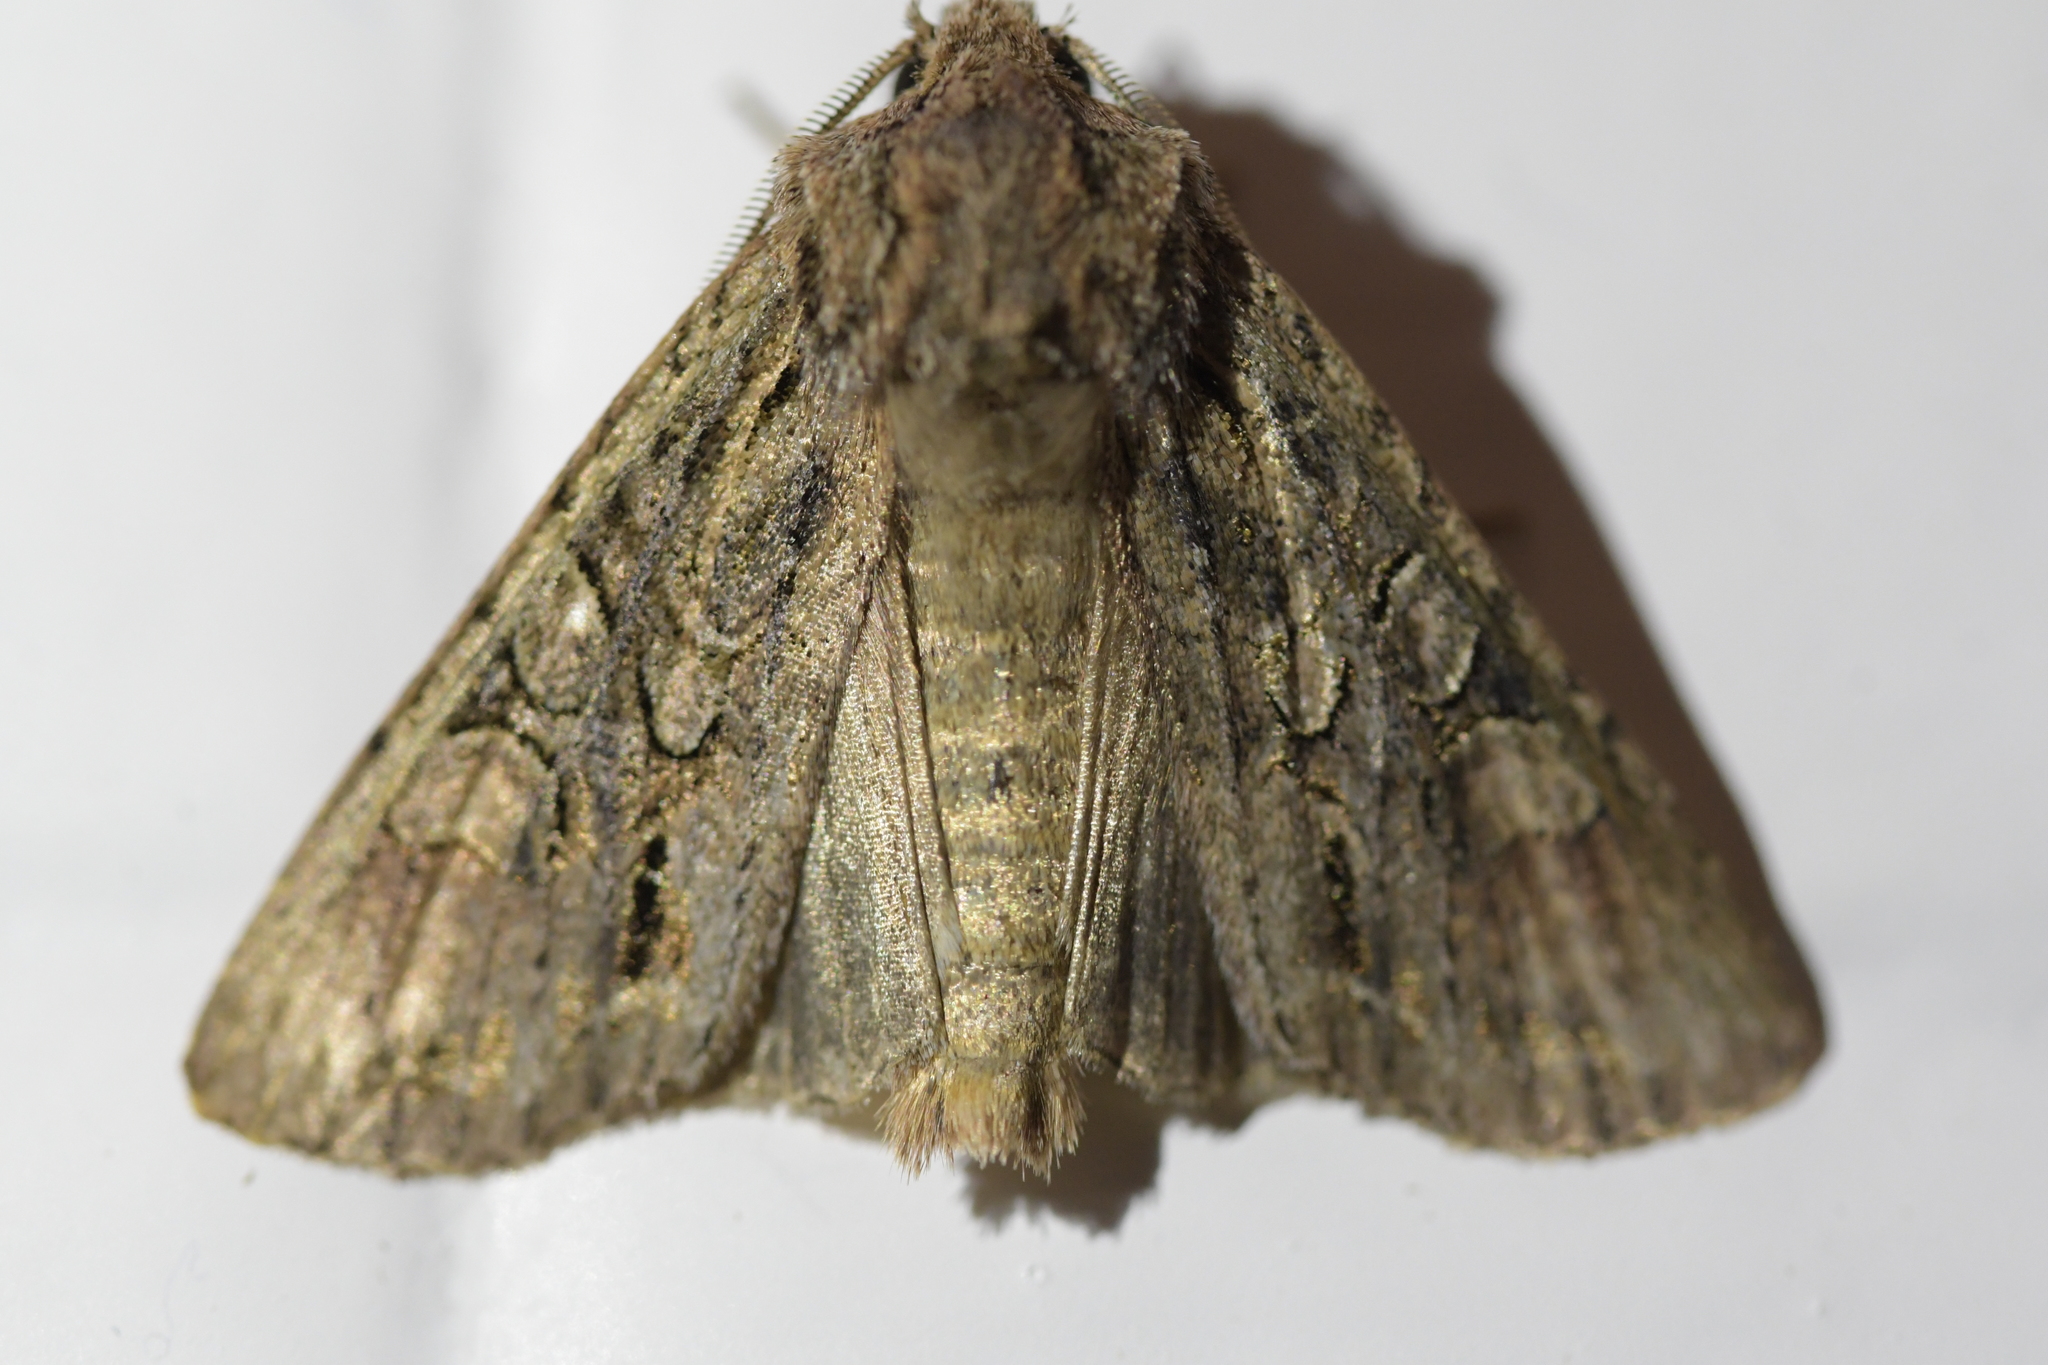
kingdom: Animalia
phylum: Arthropoda
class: Insecta
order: Lepidoptera
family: Noctuidae
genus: Ichneutica
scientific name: Ichneutica mutans
